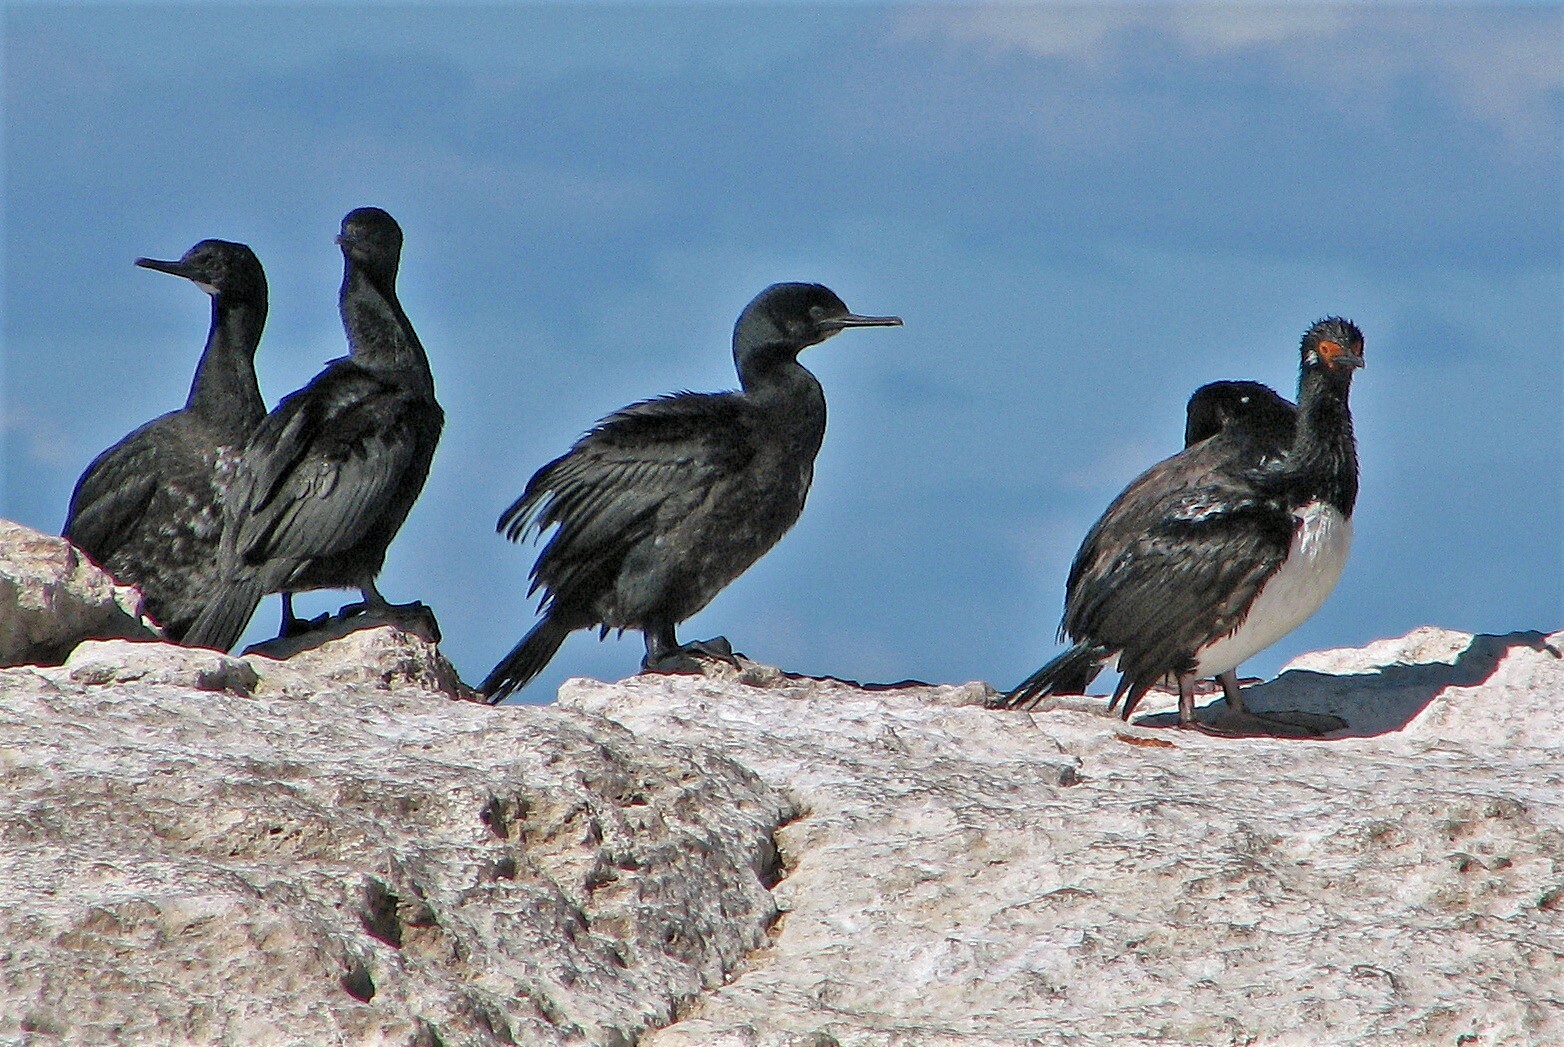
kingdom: Animalia
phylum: Chordata
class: Aves
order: Suliformes
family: Phalacrocoracidae
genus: Phalacrocorax
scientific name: Phalacrocorax magellanicus
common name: Rock shag
